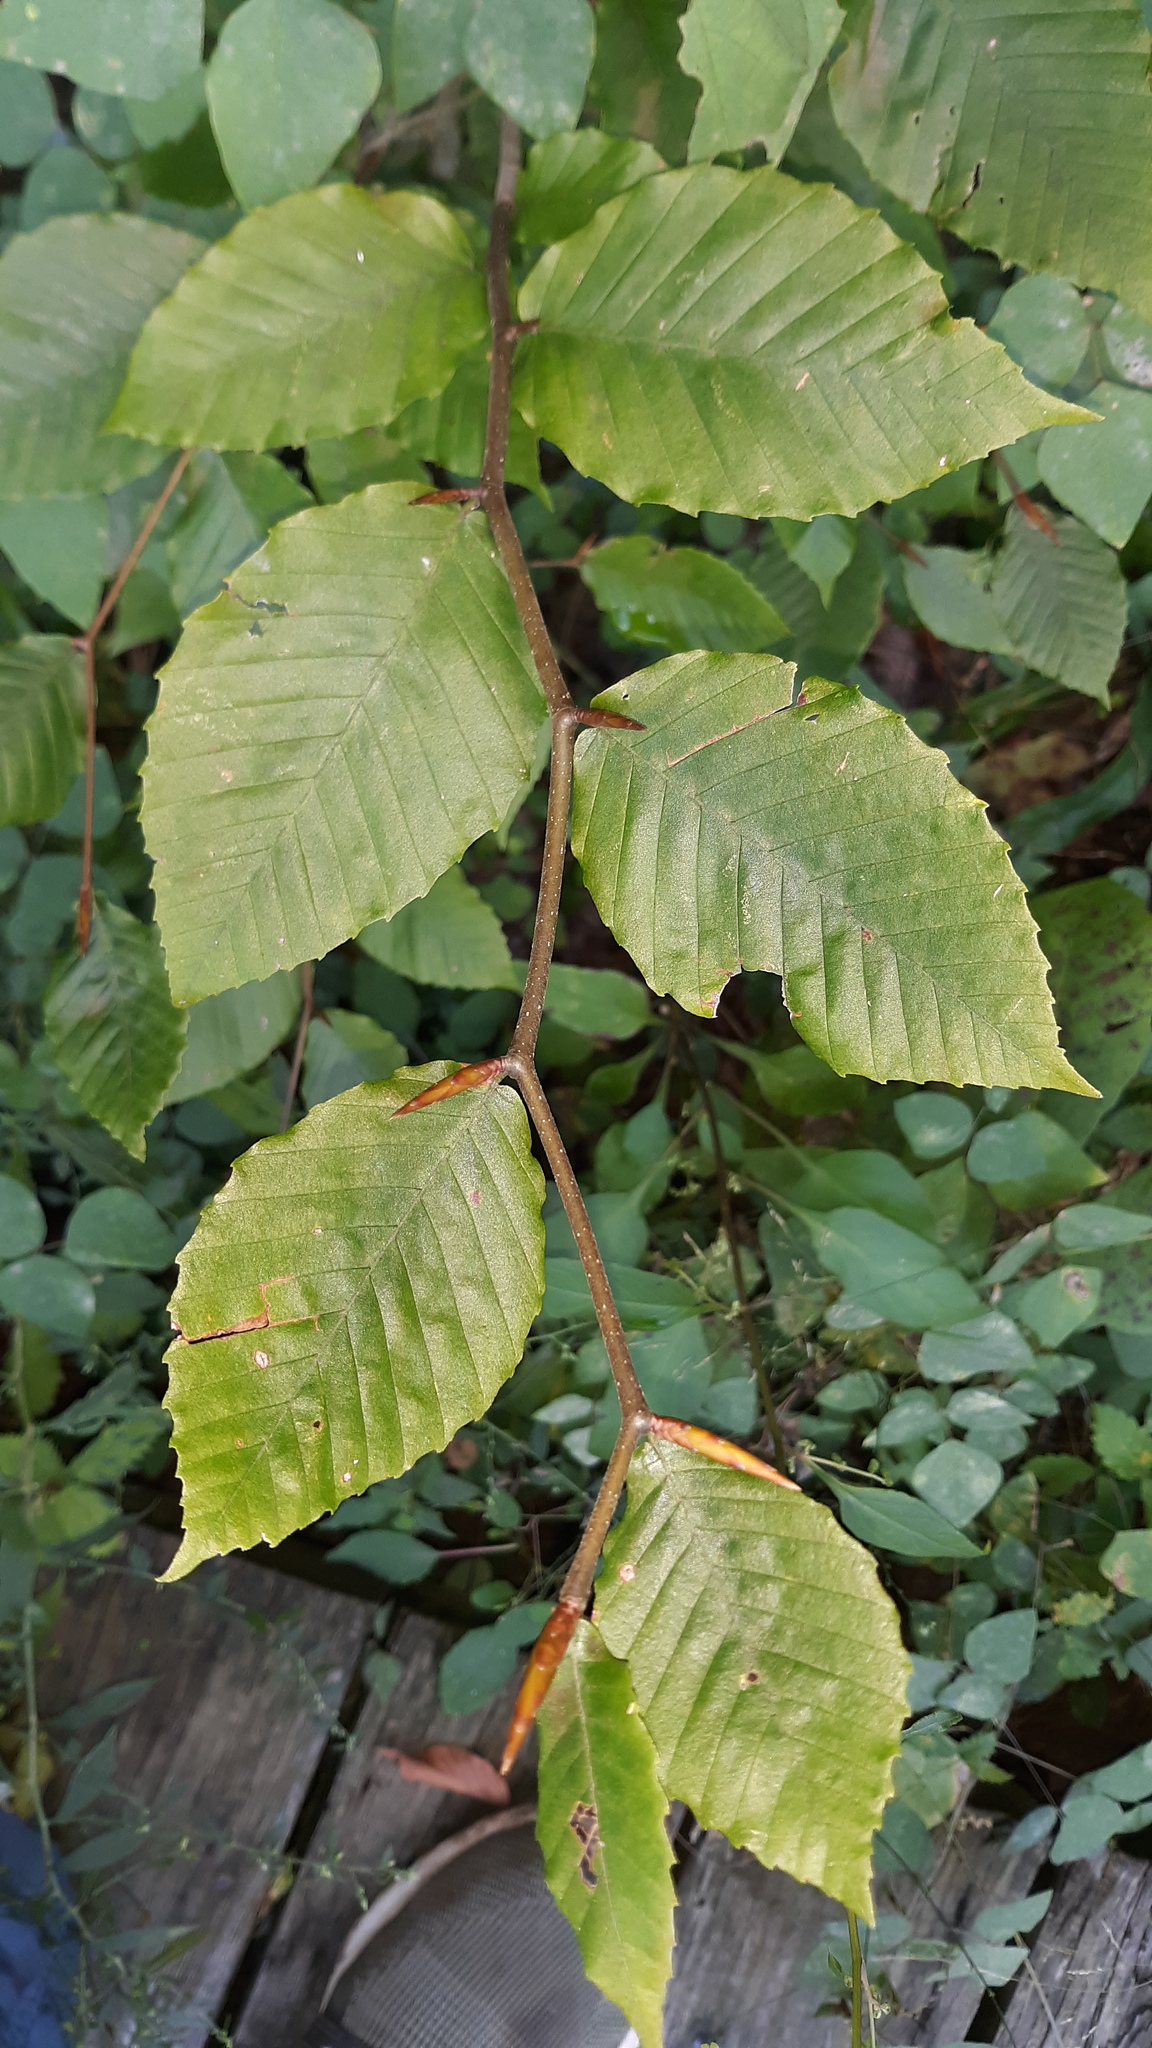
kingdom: Plantae
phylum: Tracheophyta
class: Magnoliopsida
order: Fagales
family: Fagaceae
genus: Fagus
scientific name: Fagus grandifolia
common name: American beech
